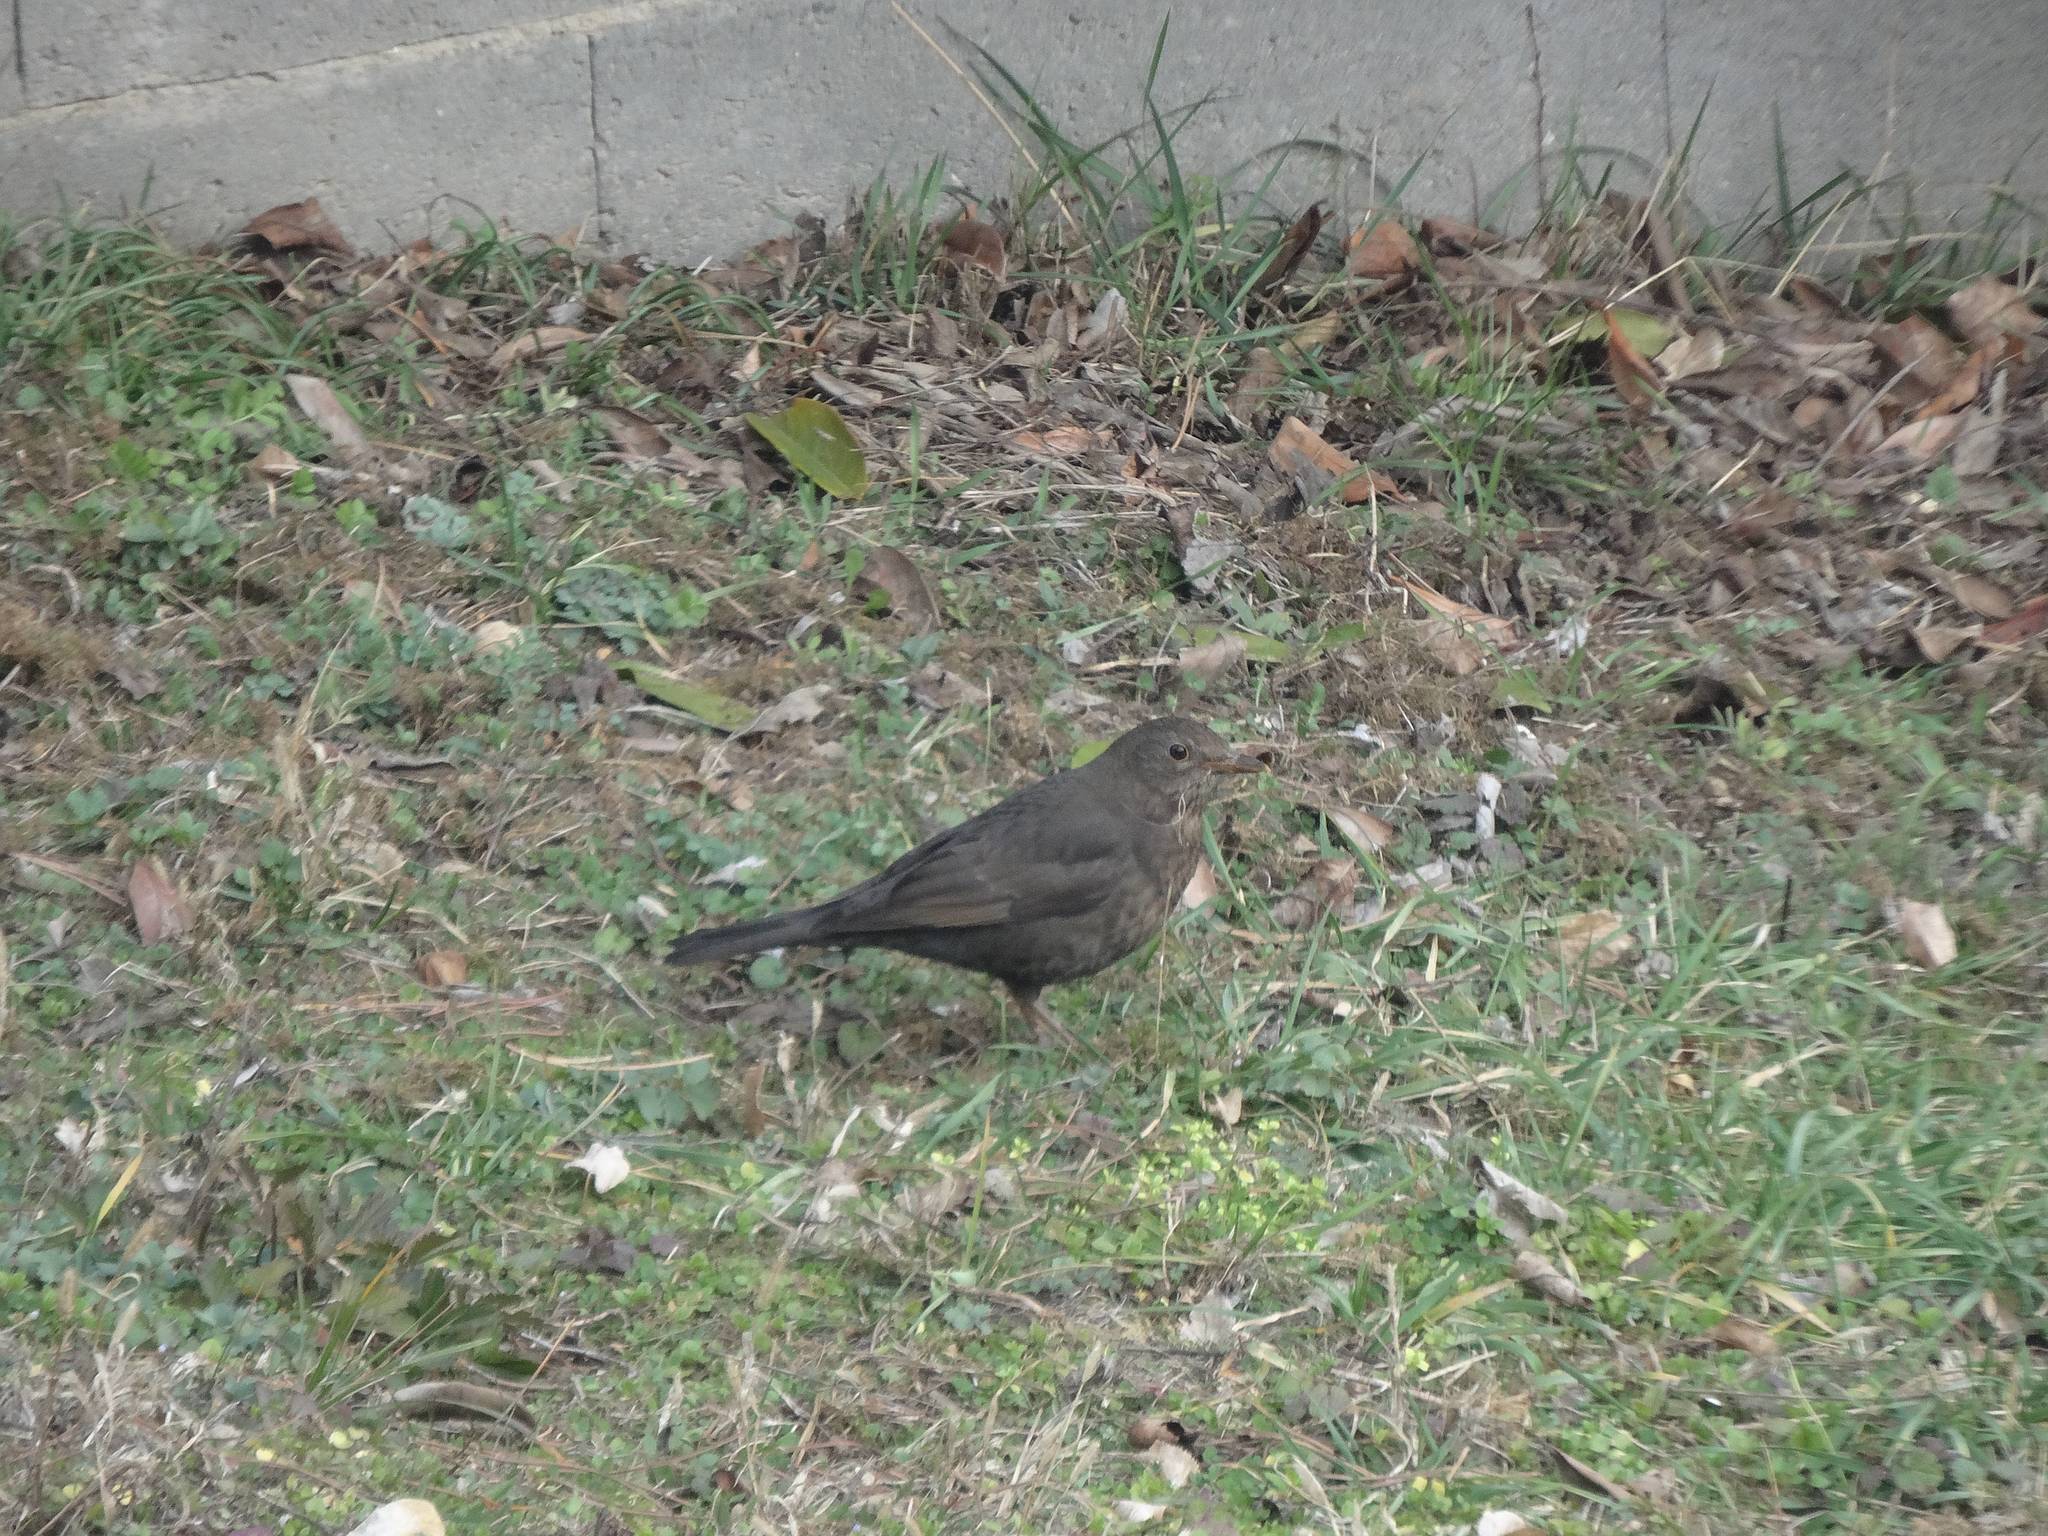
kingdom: Animalia
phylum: Chordata
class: Aves
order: Passeriformes
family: Turdidae
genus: Turdus
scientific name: Turdus merula
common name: Common blackbird
